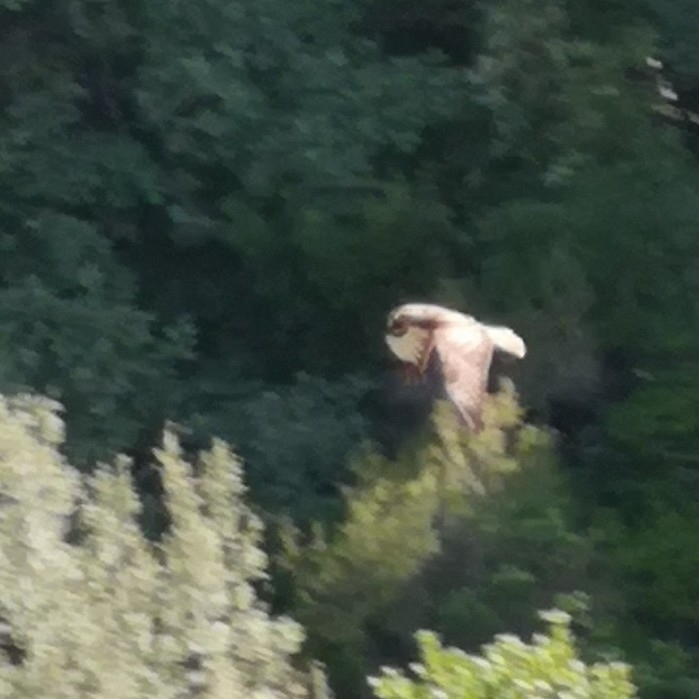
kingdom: Animalia
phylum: Chordata
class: Aves
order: Accipitriformes
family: Accipitridae
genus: Buteo
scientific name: Buteo buteo
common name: Common buzzard
